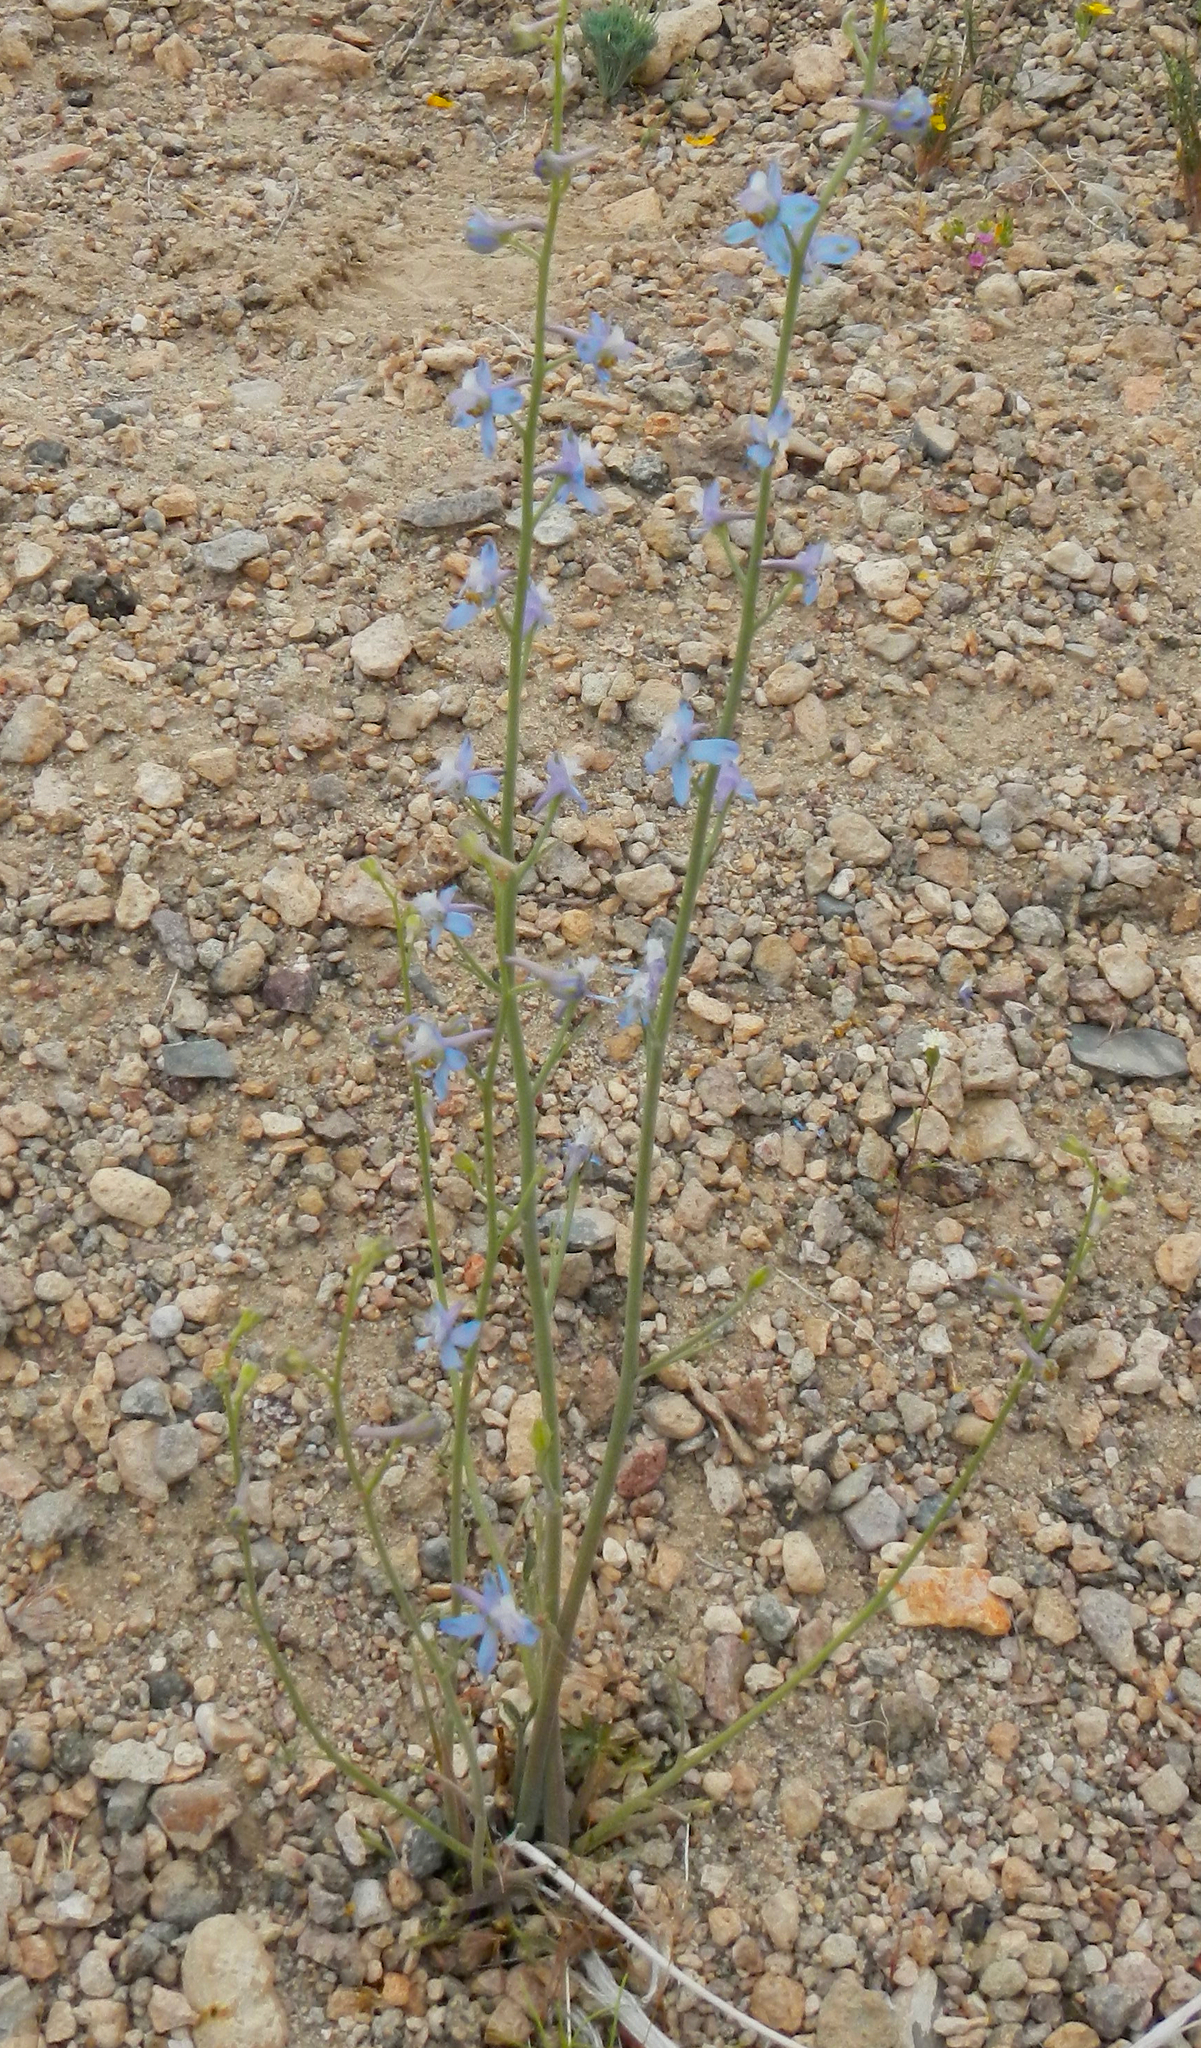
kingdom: Plantae
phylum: Tracheophyta
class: Magnoliopsida
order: Ranunculales
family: Ranunculaceae
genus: Delphinium
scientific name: Delphinium parishii
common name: Apache larkspur
